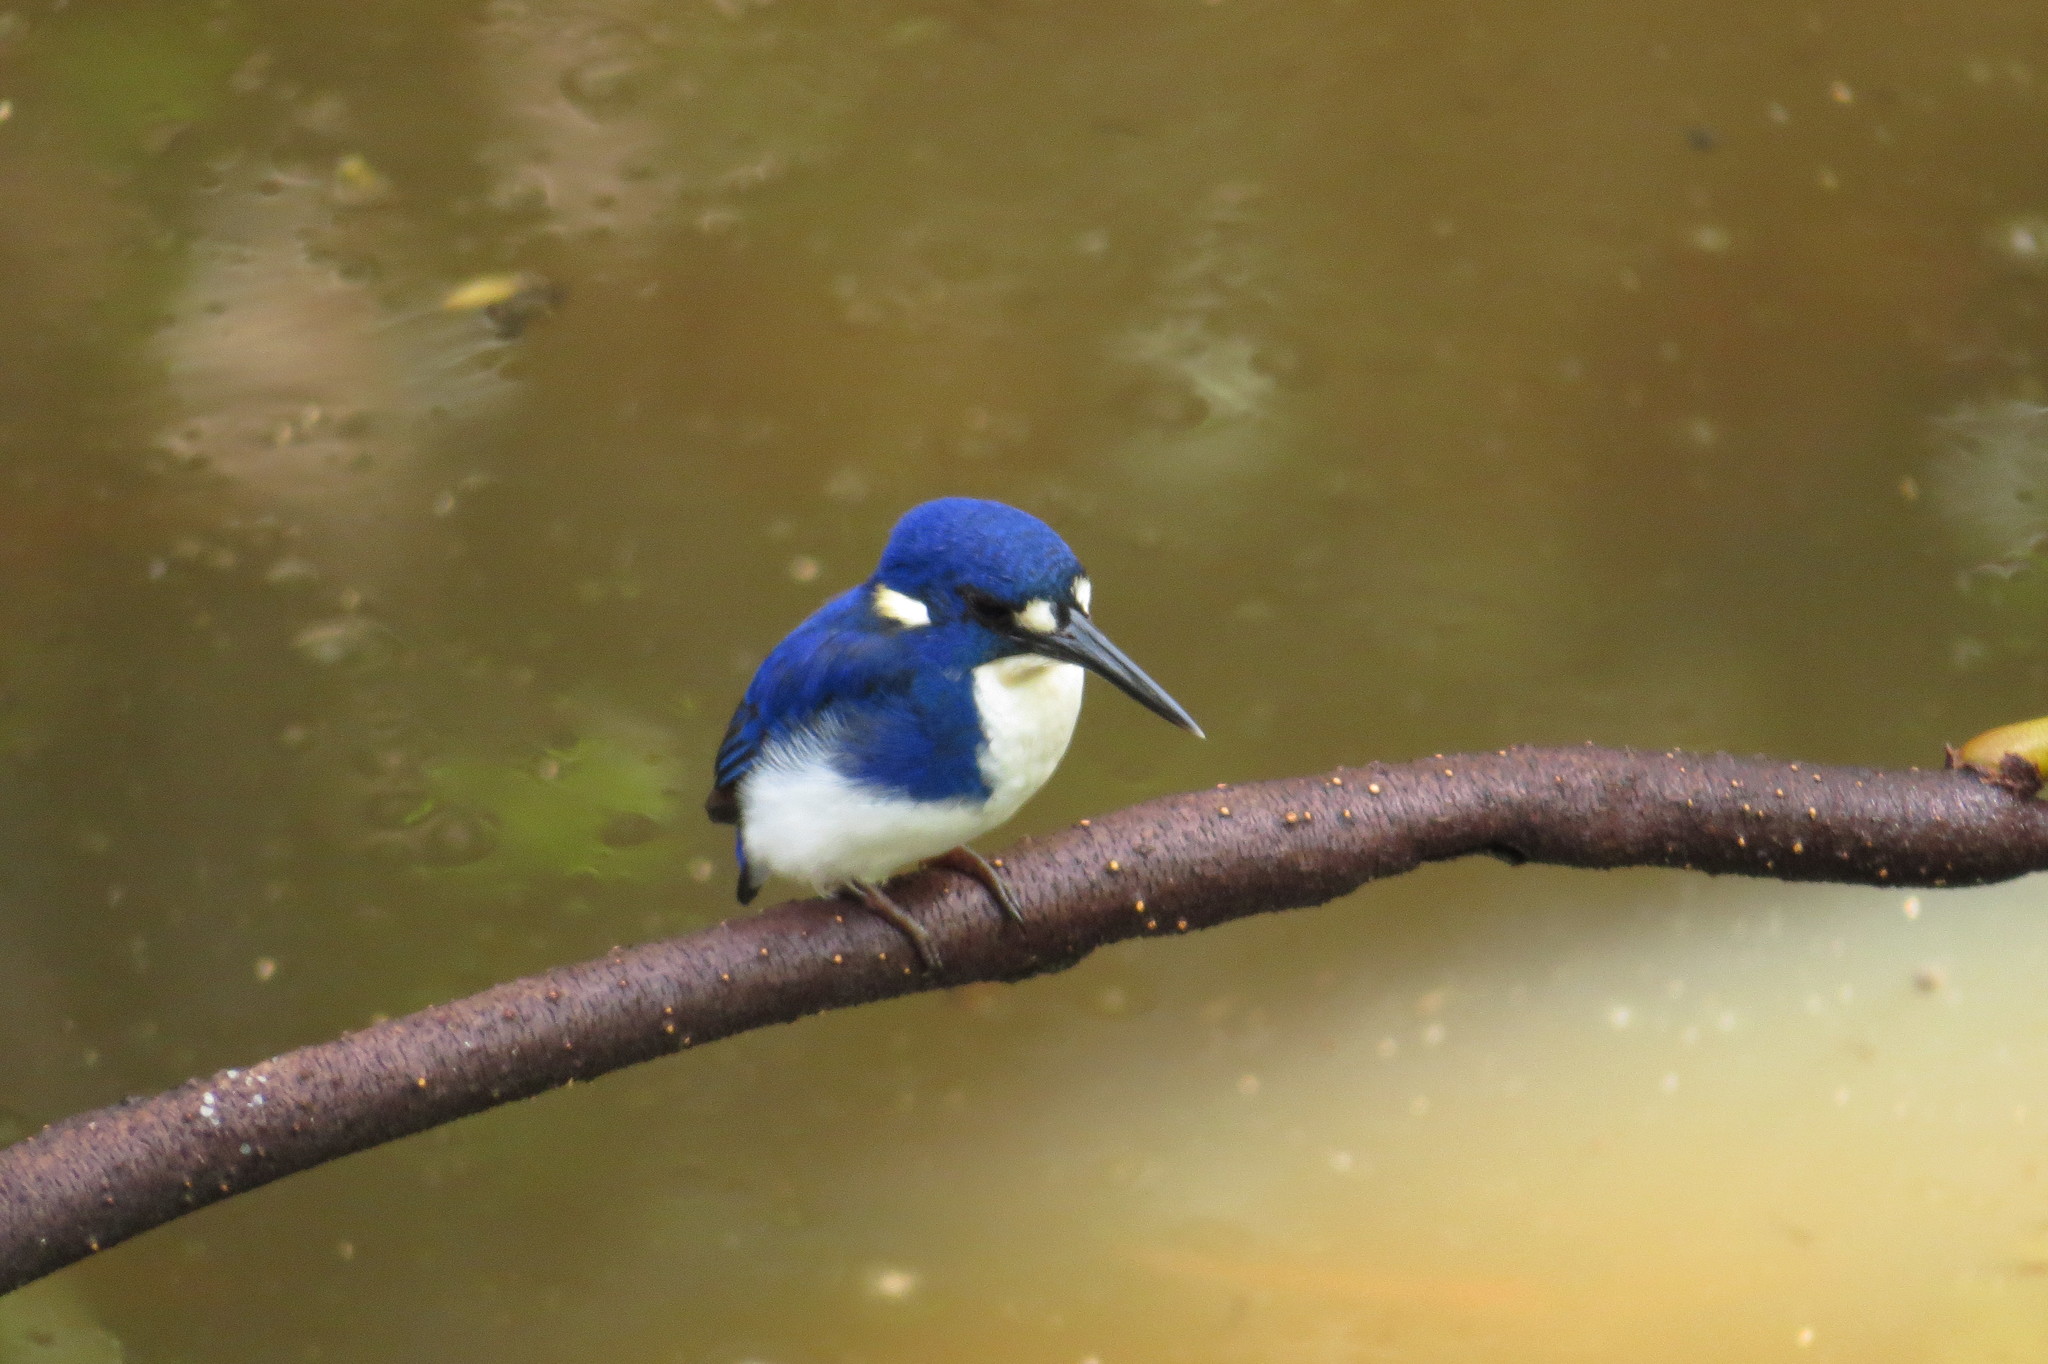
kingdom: Animalia
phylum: Chordata
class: Aves
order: Coraciiformes
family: Alcedinidae
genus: Ceyx
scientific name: Ceyx pusillus
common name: Little kingfisher
